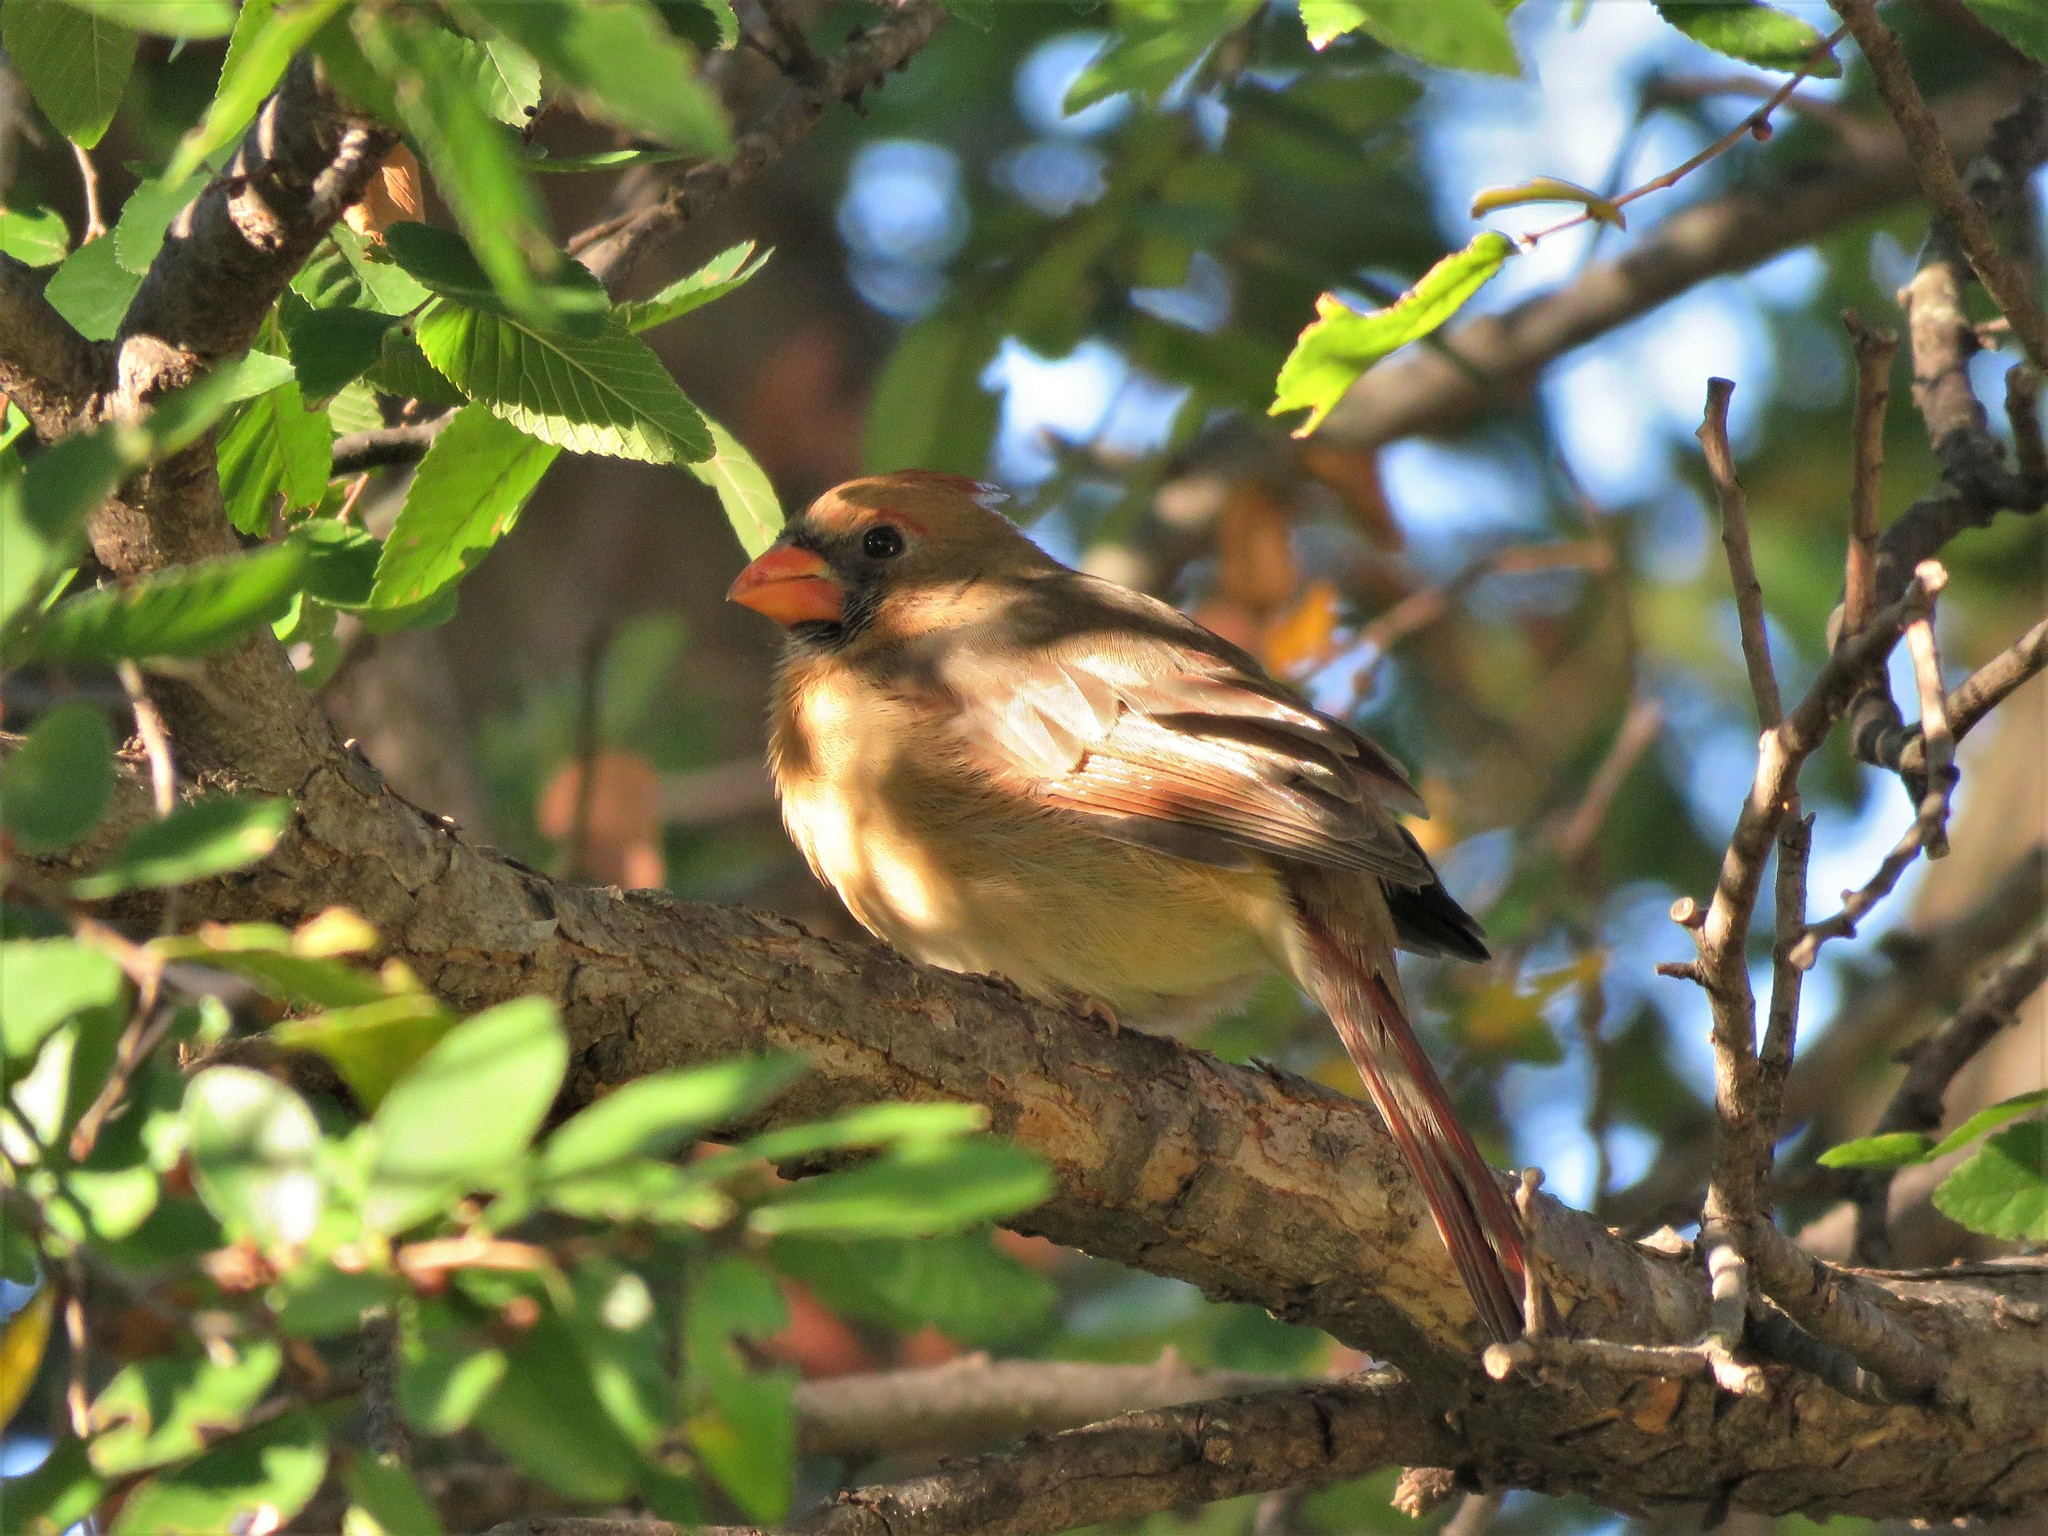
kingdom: Animalia
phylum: Chordata
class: Aves
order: Passeriformes
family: Cardinalidae
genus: Cardinalis
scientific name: Cardinalis cardinalis
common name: Northern cardinal
